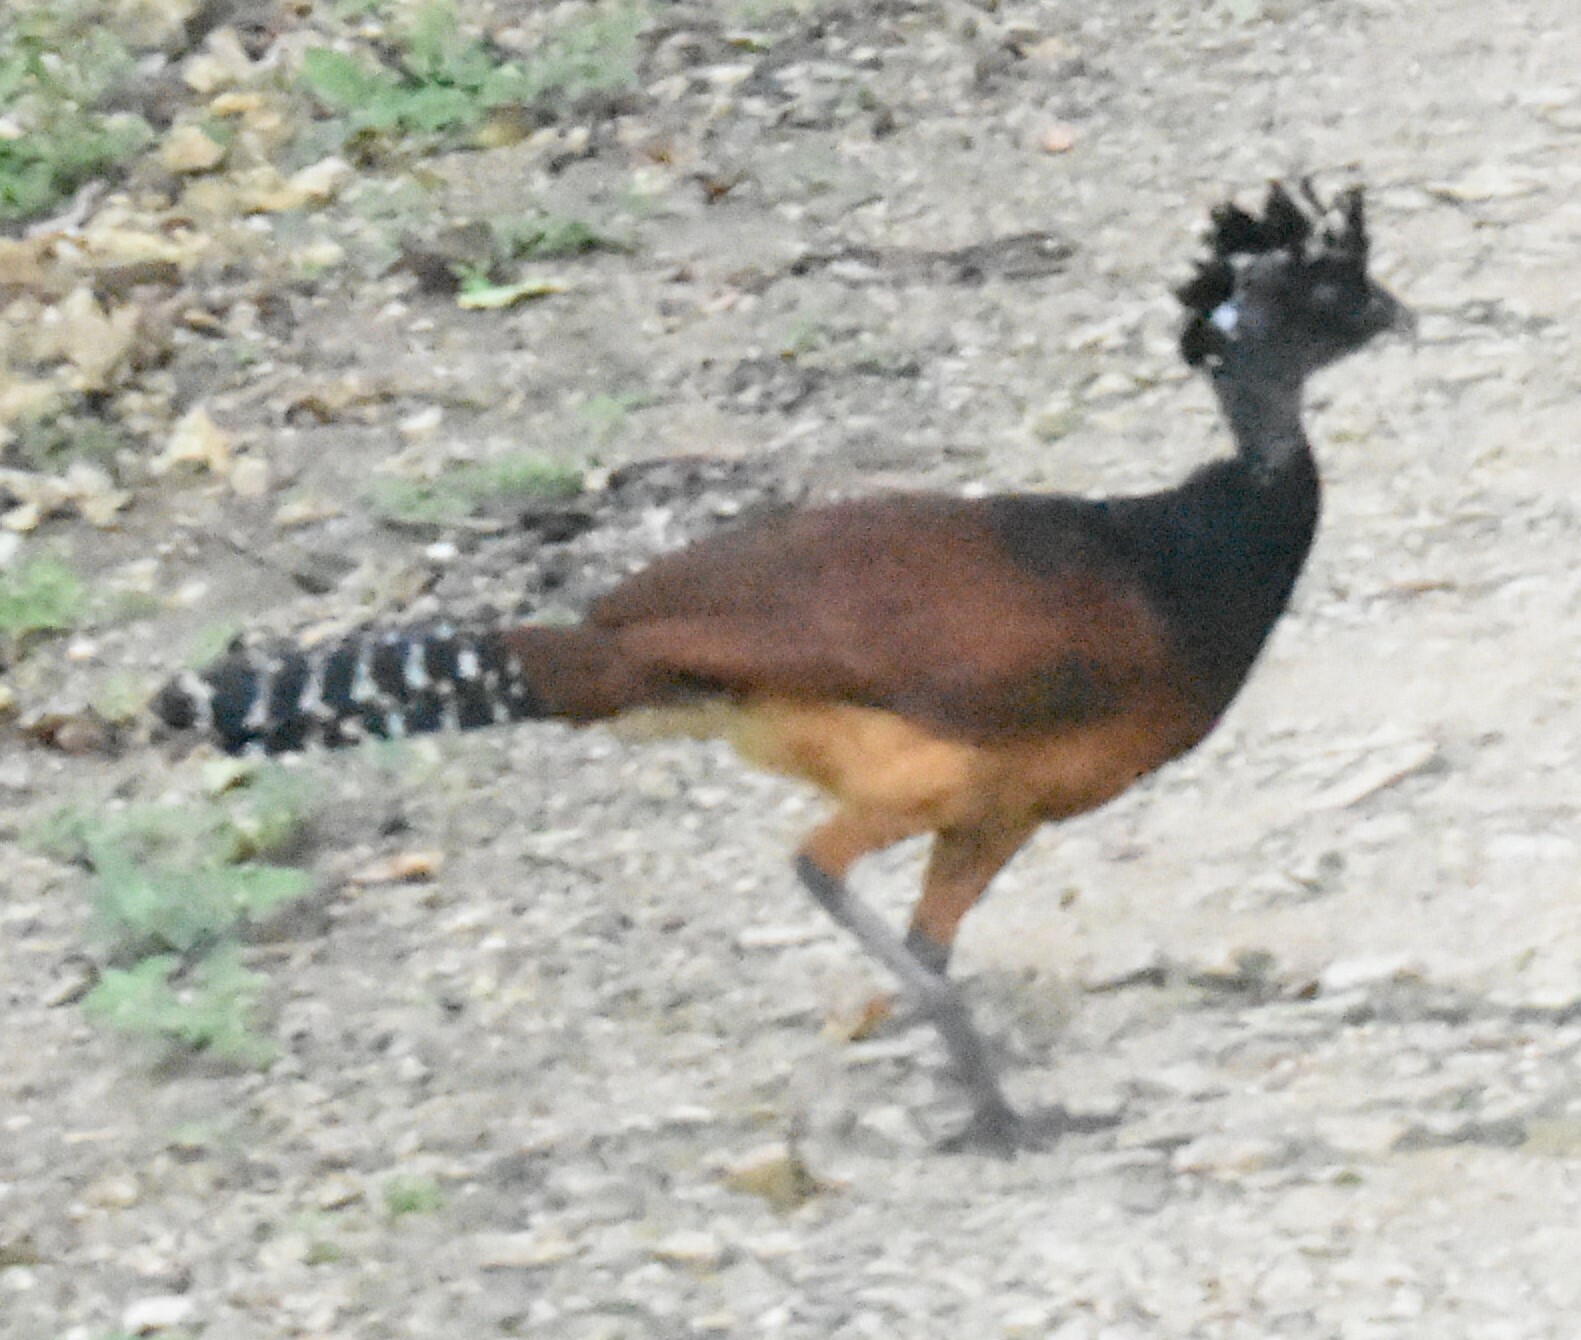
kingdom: Animalia
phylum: Chordata
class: Aves
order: Galliformes
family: Cracidae
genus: Crax
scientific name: Crax rubra
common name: Great curassow
